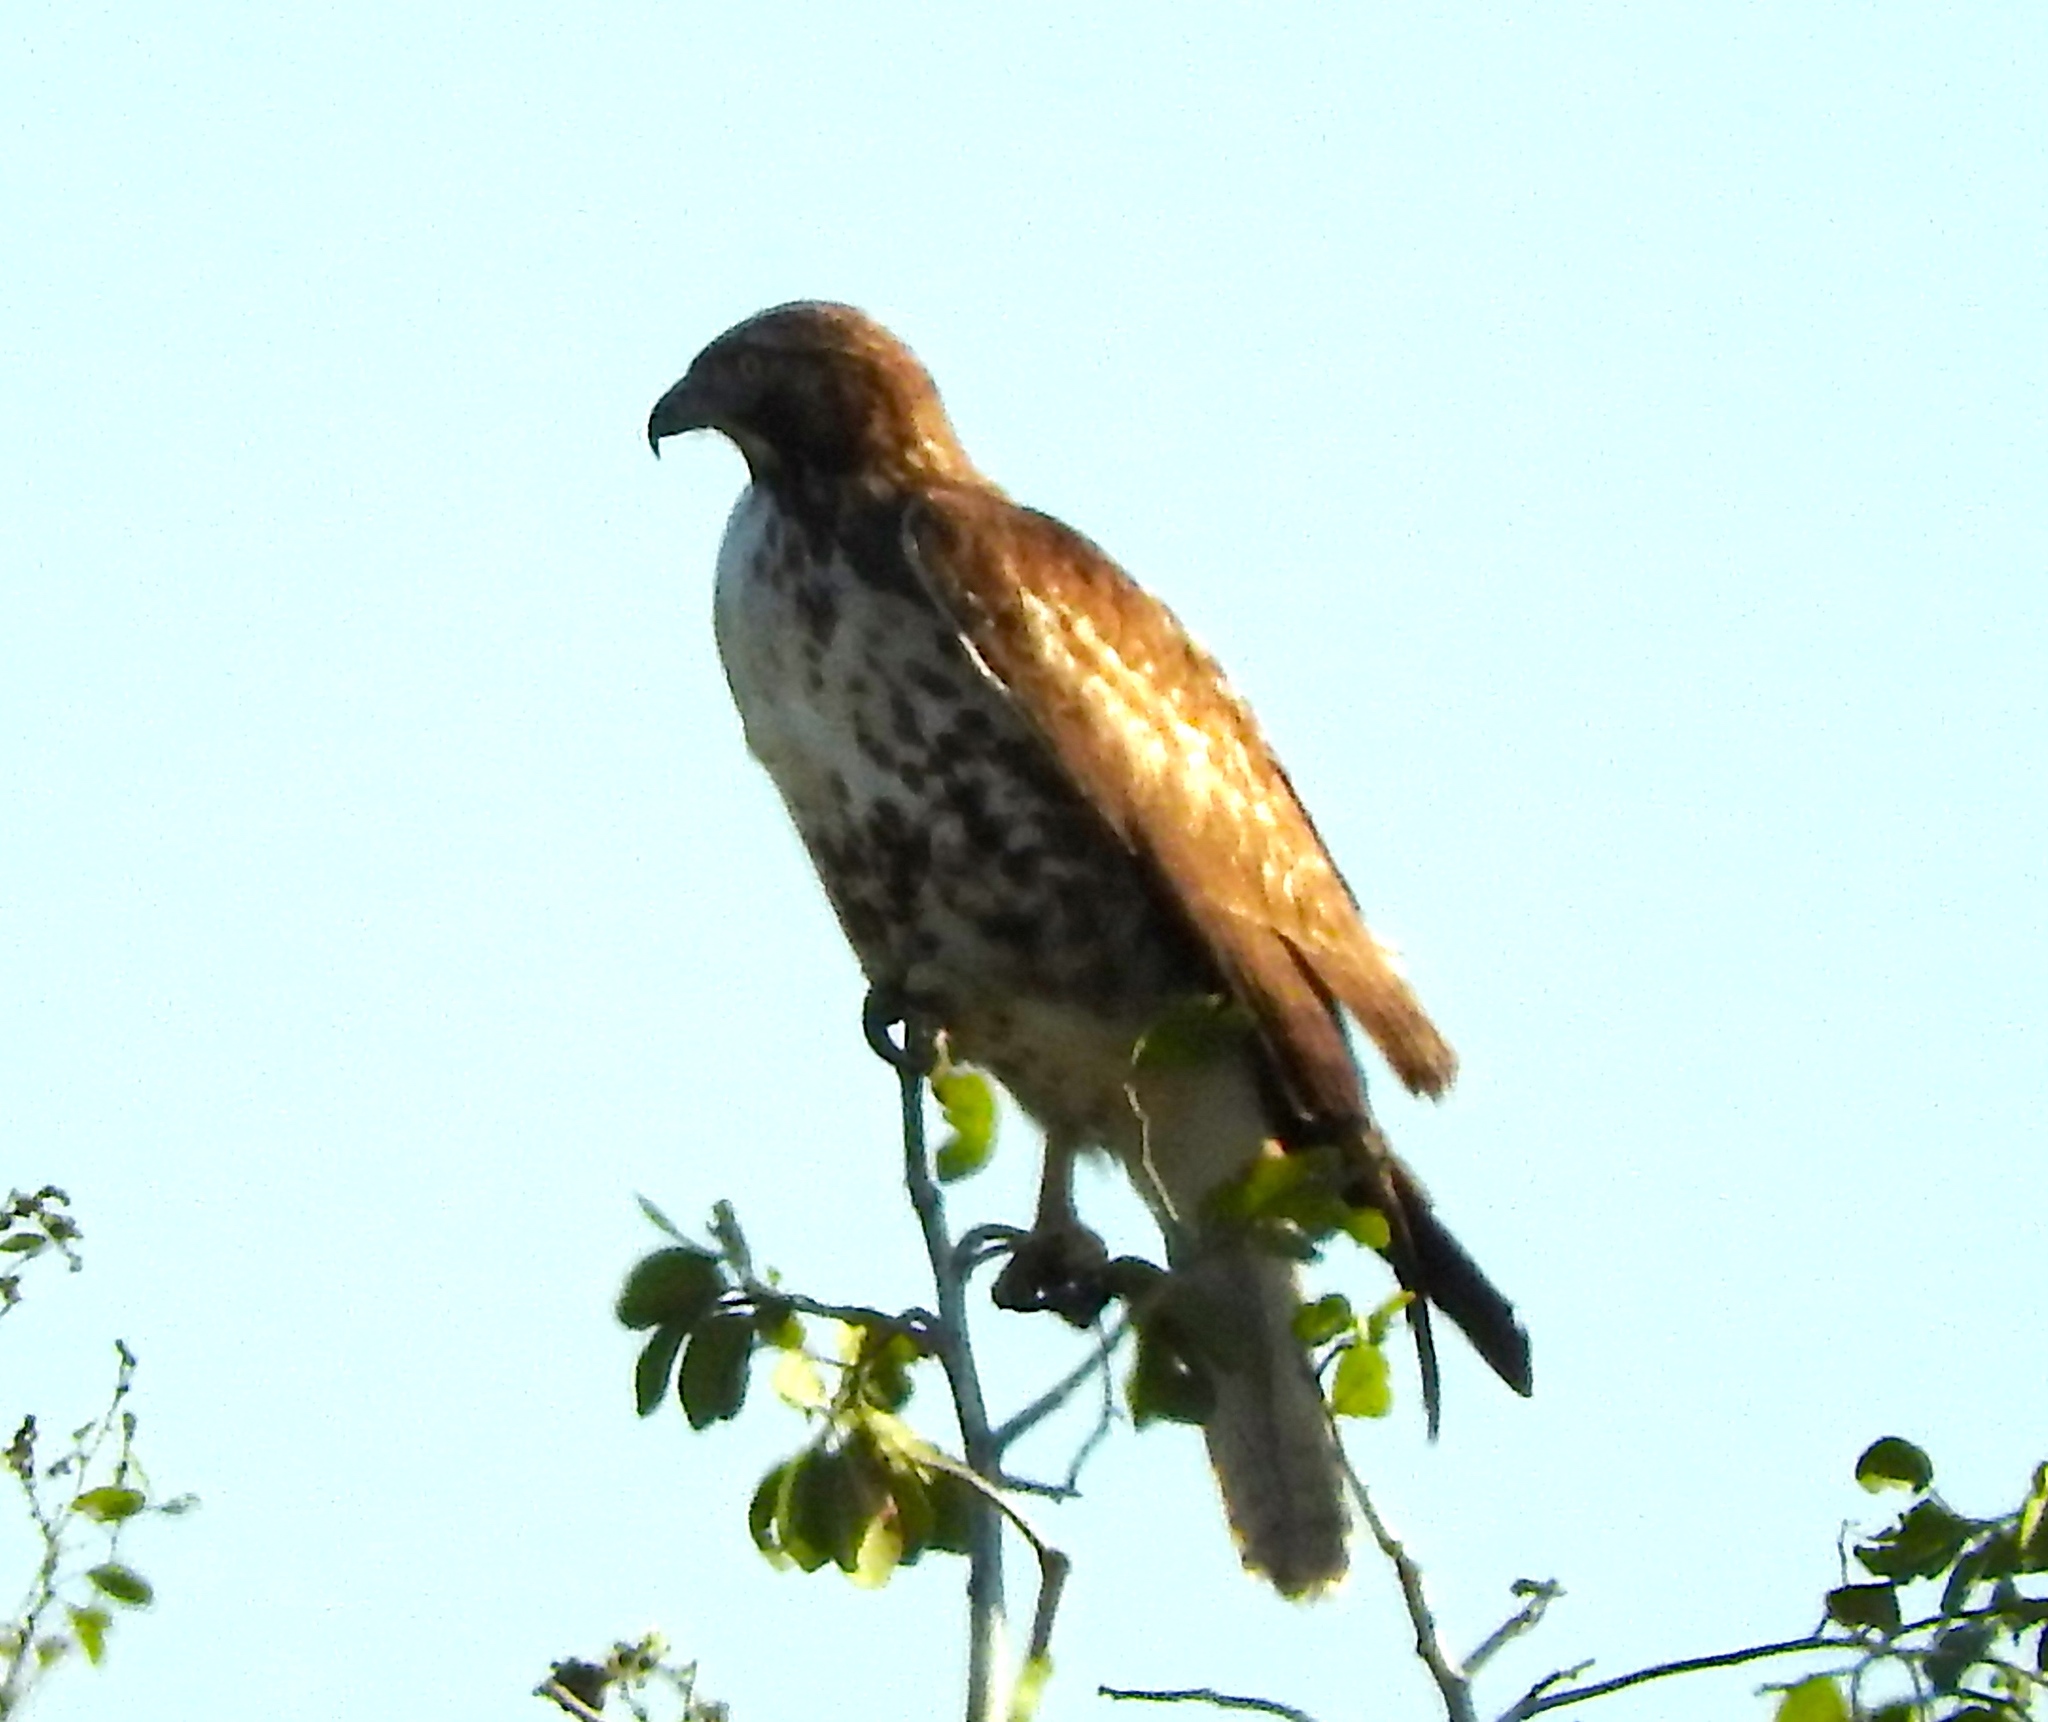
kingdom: Animalia
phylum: Chordata
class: Aves
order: Accipitriformes
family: Accipitridae
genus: Buteo
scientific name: Buteo jamaicensis
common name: Red-tailed hawk
